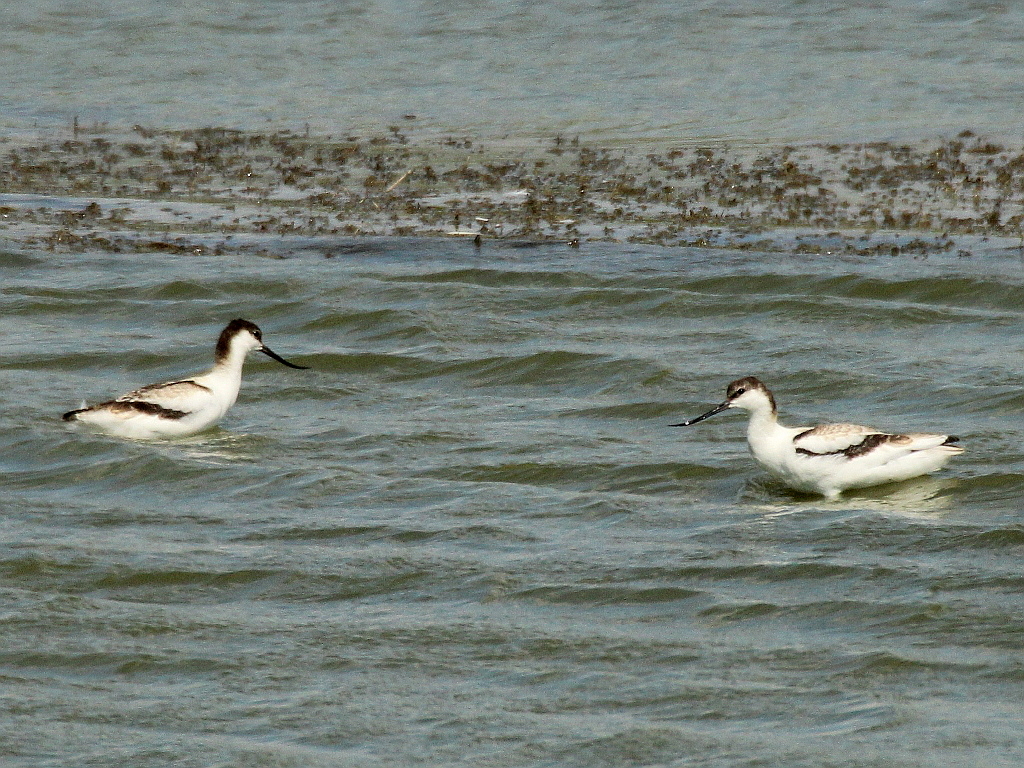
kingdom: Animalia
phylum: Chordata
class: Aves
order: Charadriiformes
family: Recurvirostridae
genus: Recurvirostra
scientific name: Recurvirostra avosetta
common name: Pied avocet
